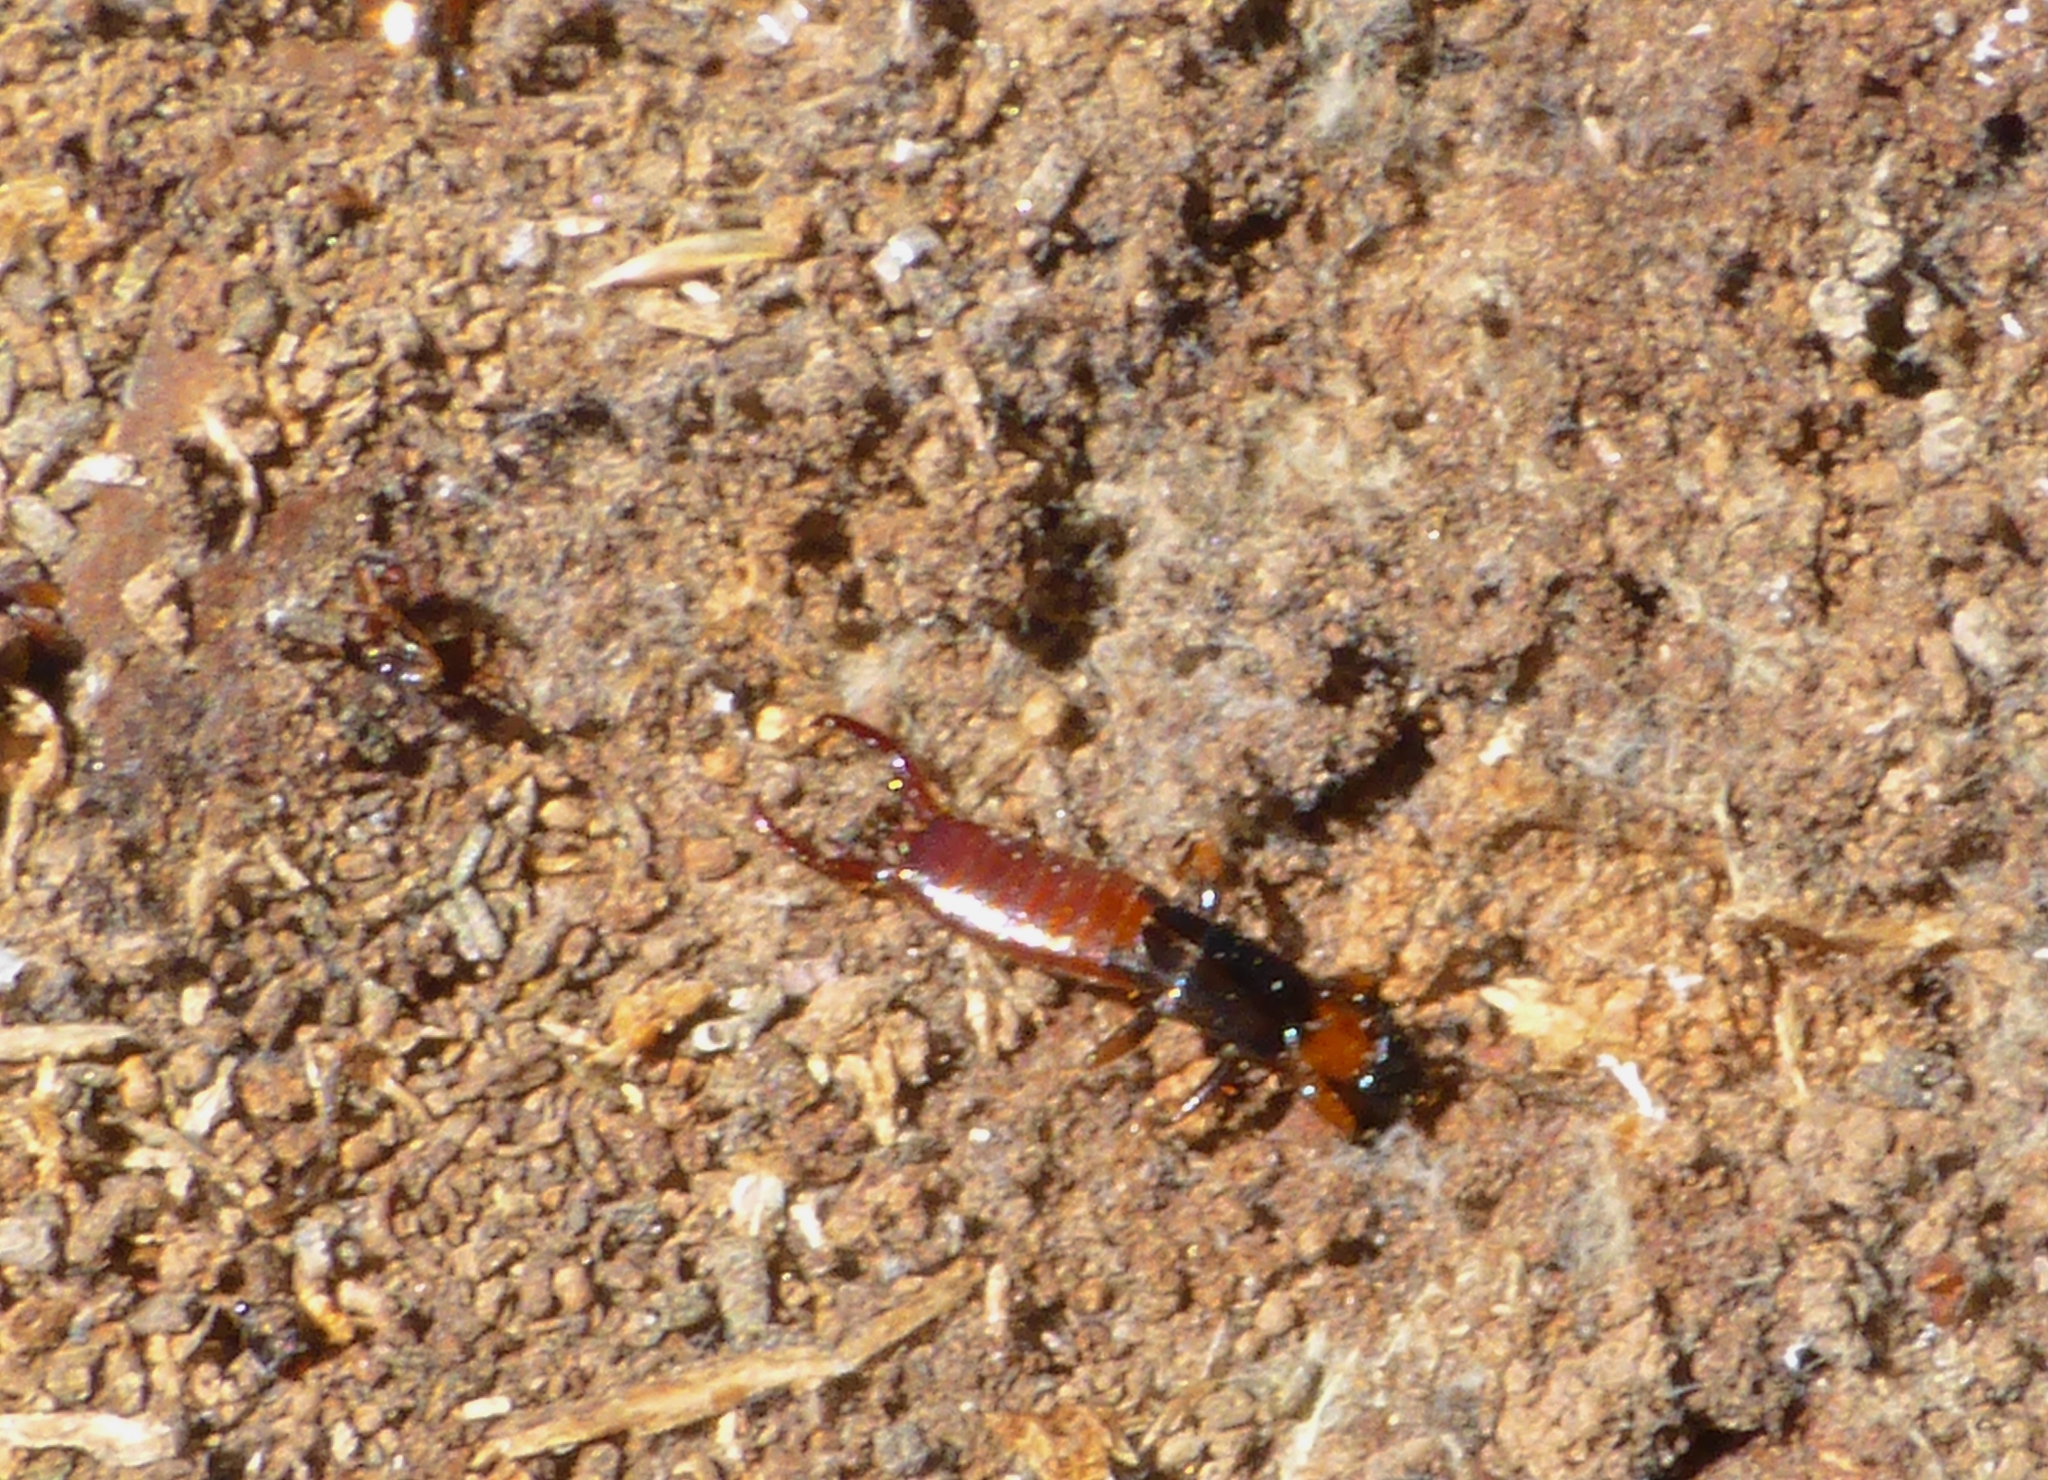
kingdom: Animalia
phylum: Arthropoda
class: Insecta
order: Dermaptera
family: Spongiphoridae
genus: Paraspania
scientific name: Paraspania brunneri
